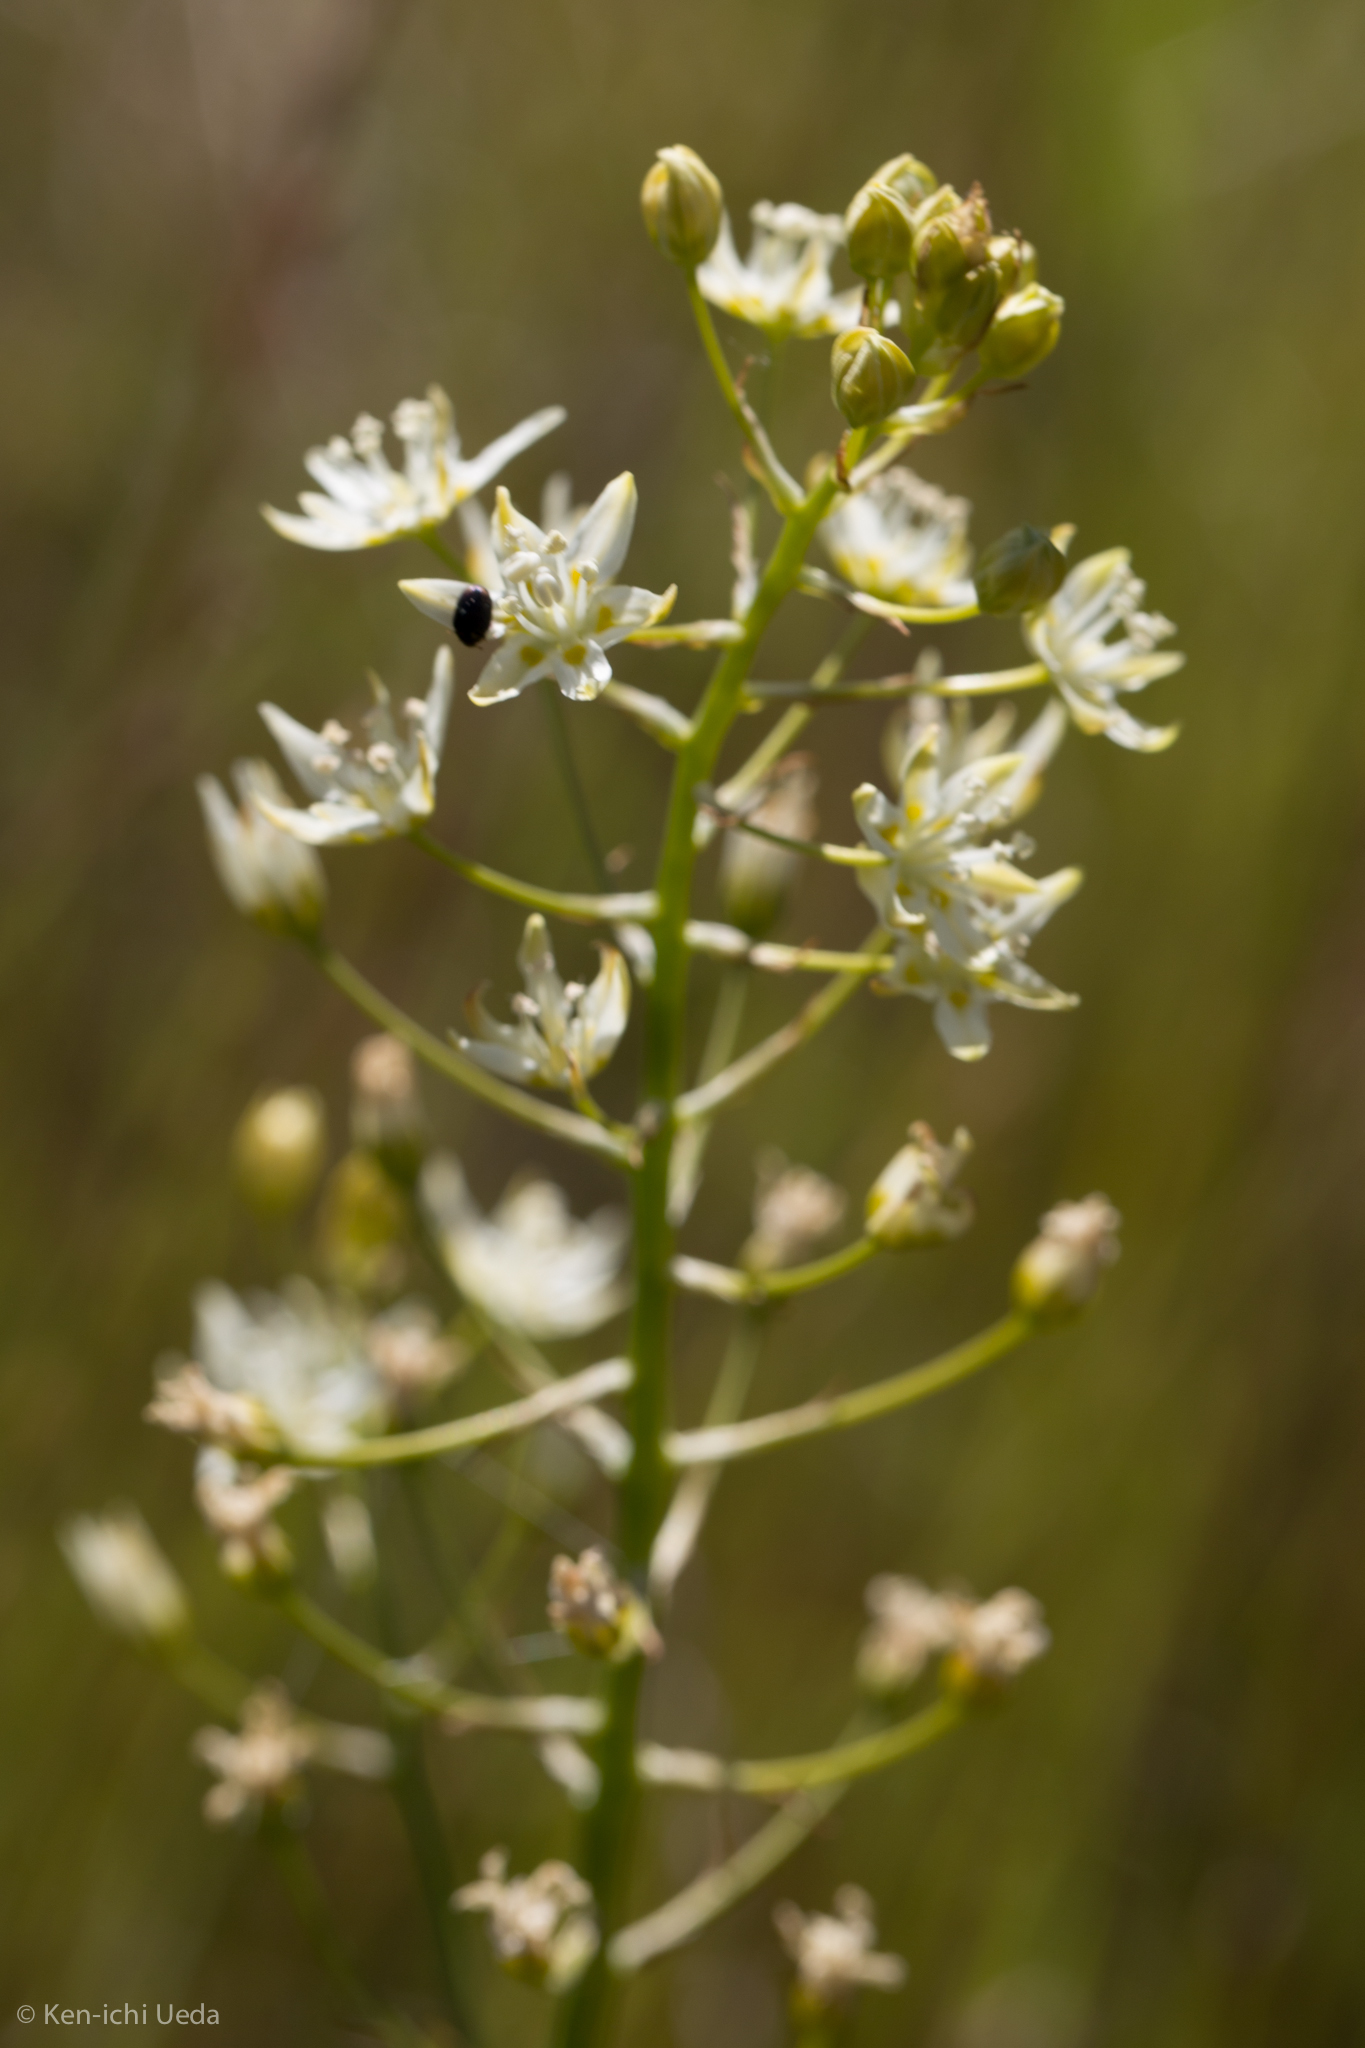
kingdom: Plantae
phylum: Tracheophyta
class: Liliopsida
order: Liliales
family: Melanthiaceae
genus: Toxicoscordion
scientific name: Toxicoscordion fontanum
